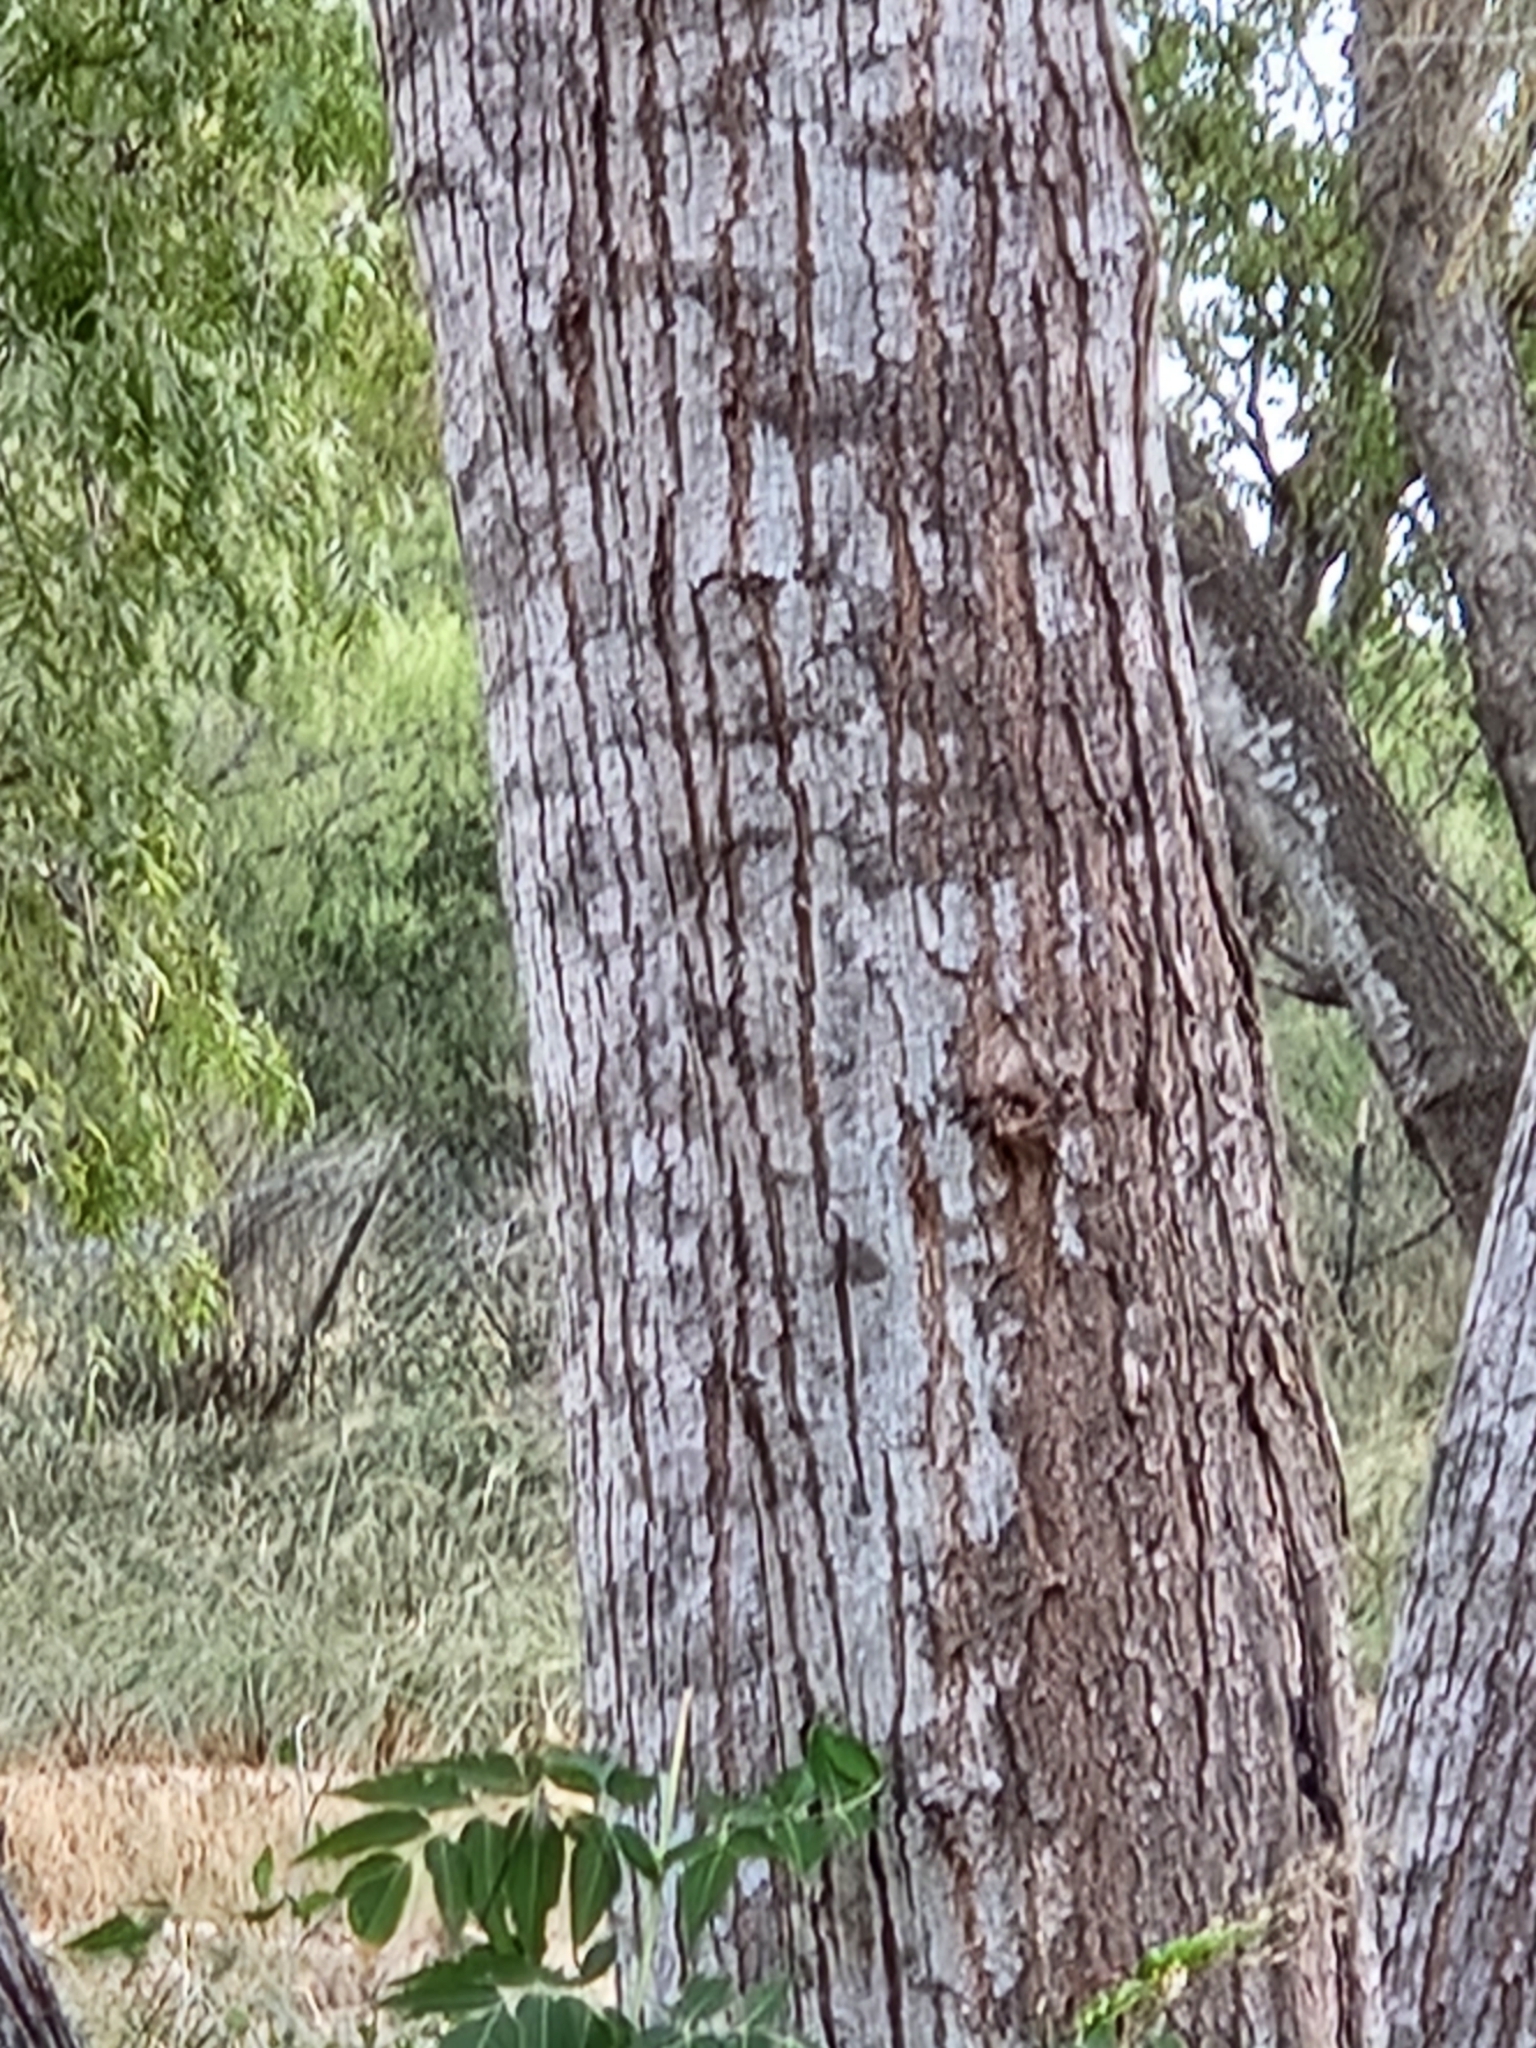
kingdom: Plantae
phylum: Tracheophyta
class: Magnoliopsida
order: Sapindales
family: Meliaceae
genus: Melia
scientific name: Melia azedarach
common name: Chinaberrytree
